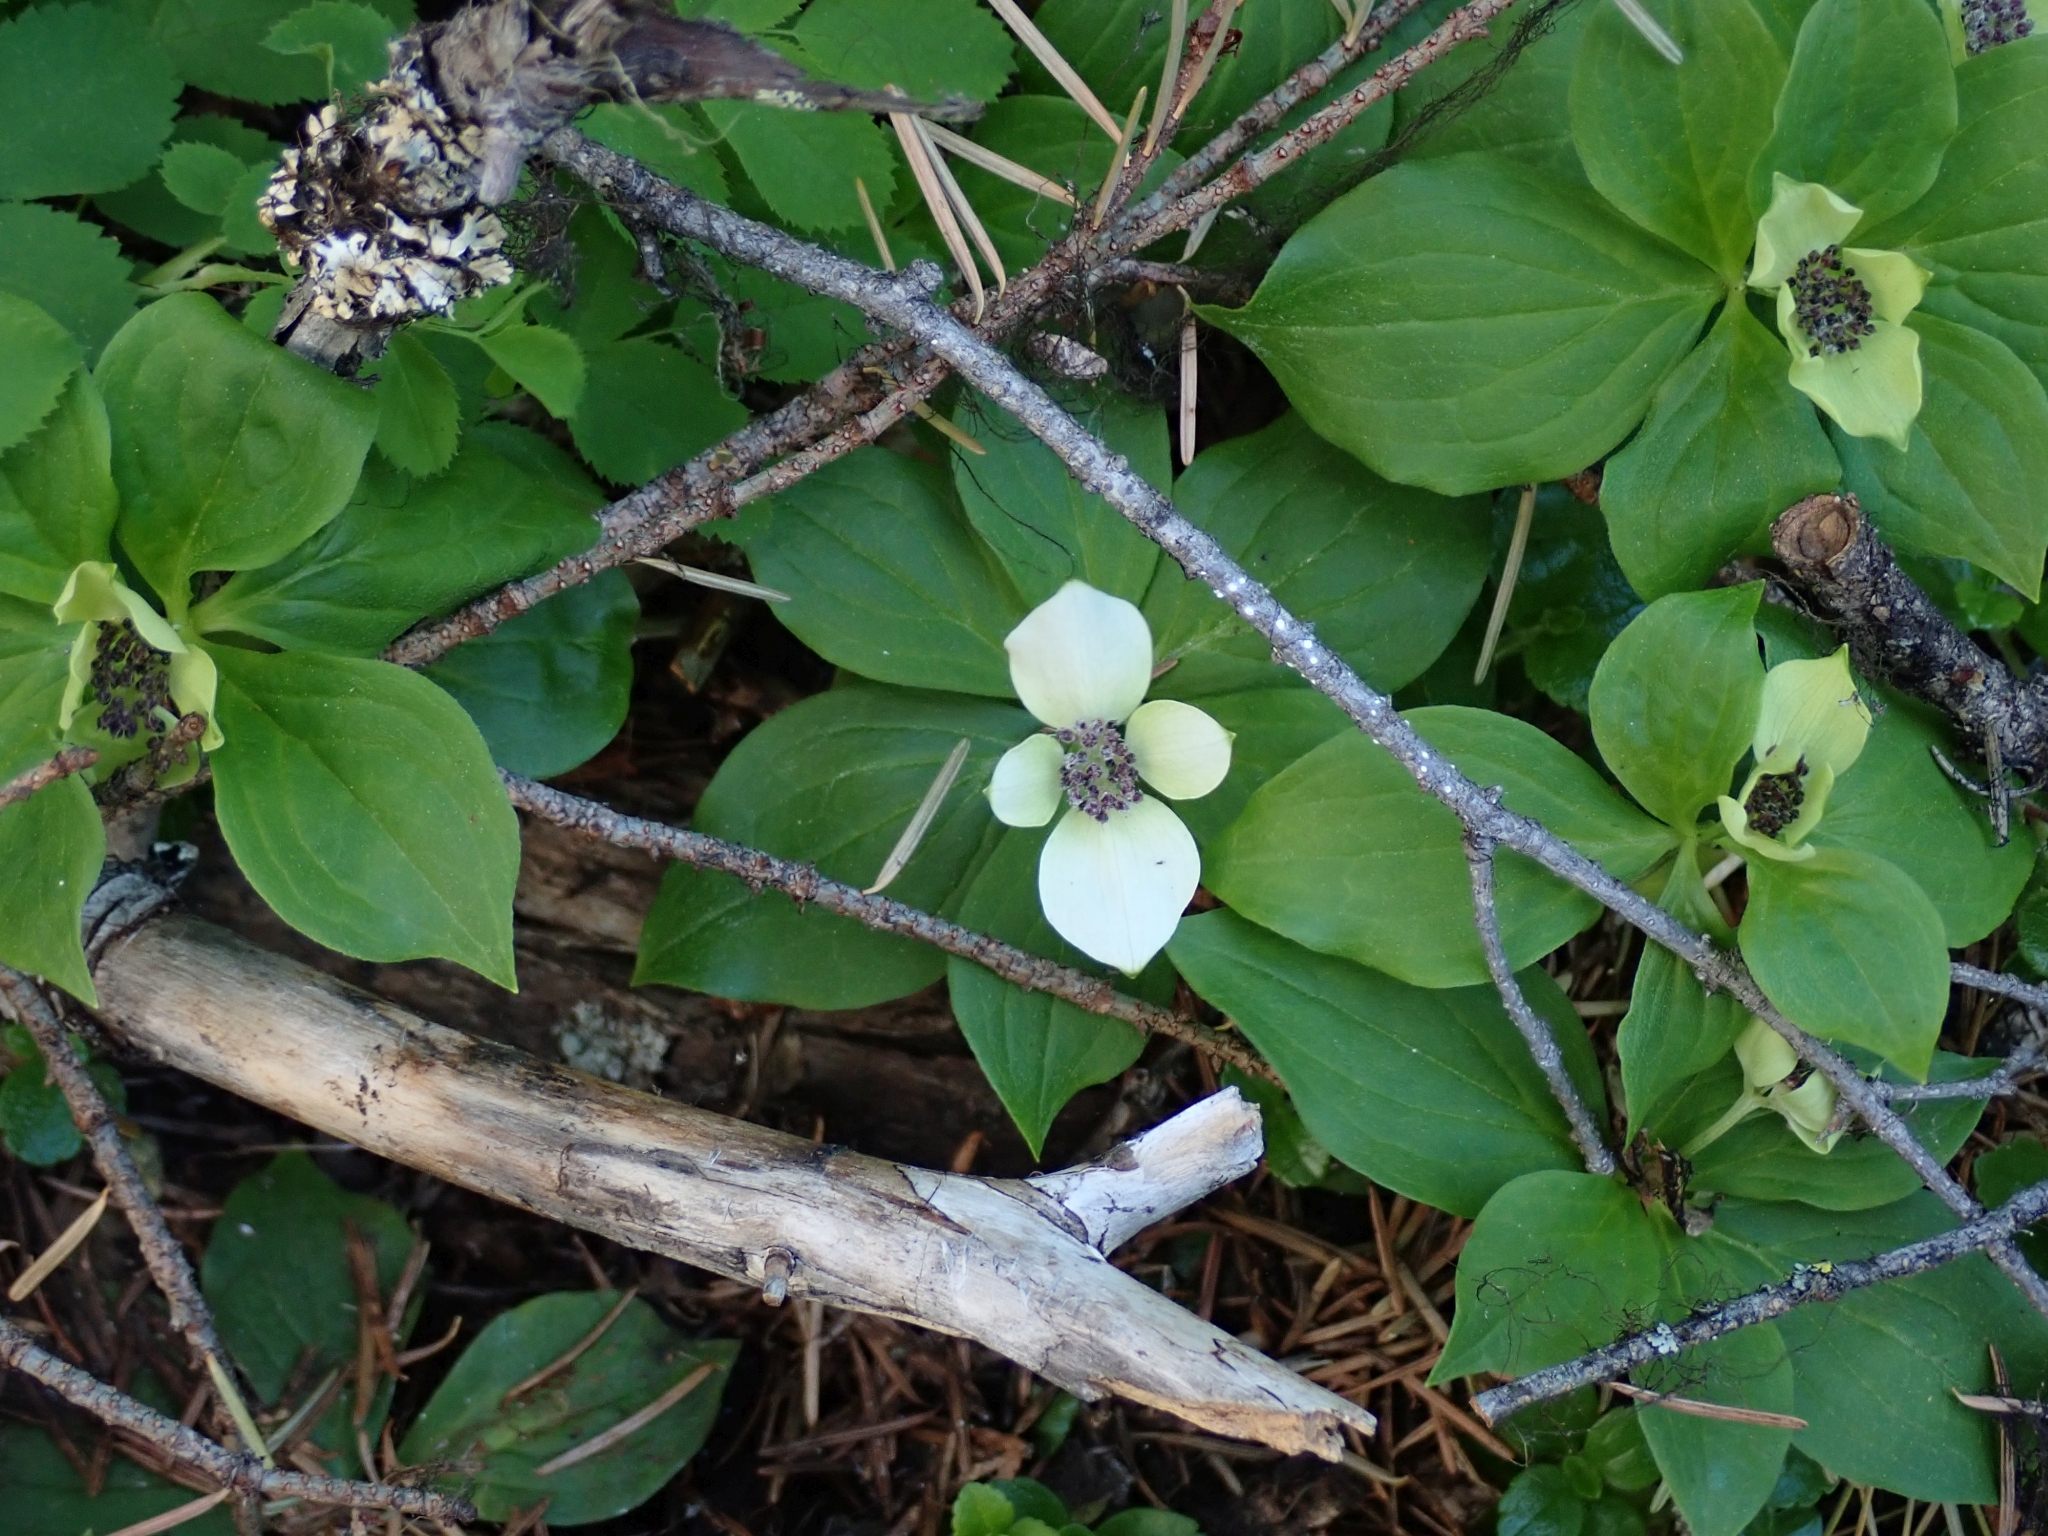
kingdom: Plantae
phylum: Tracheophyta
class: Magnoliopsida
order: Cornales
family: Cornaceae
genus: Cornus
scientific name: Cornus unalaschkensis
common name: Alaska bunchberry
